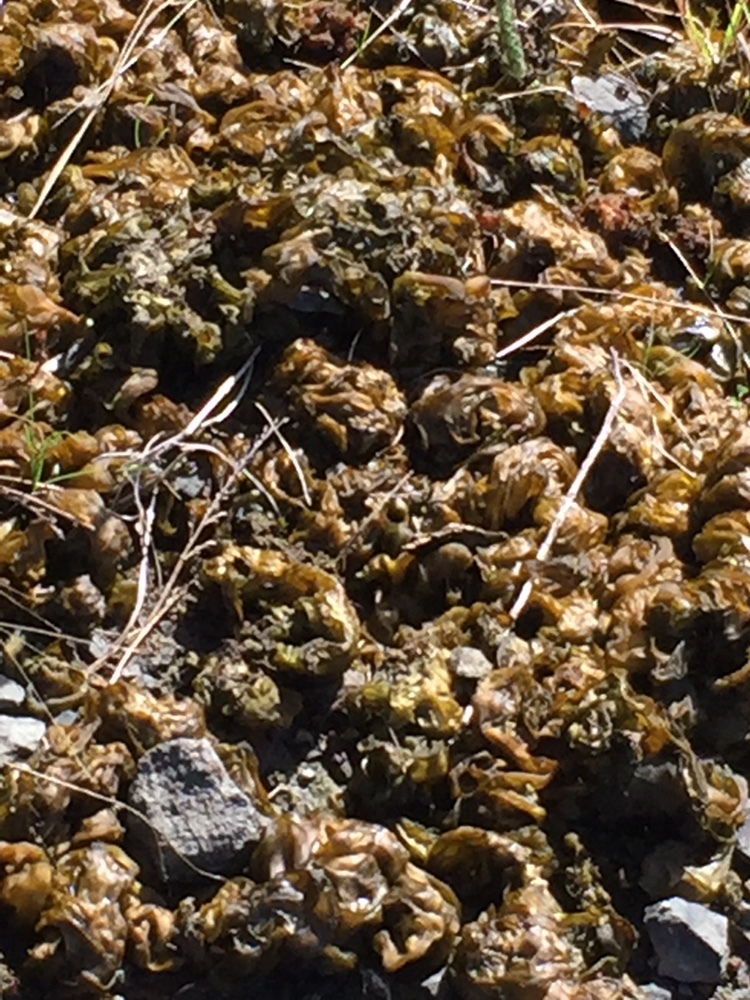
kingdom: Bacteria
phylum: Cyanobacteria
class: Cyanobacteriia
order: Cyanobacteriales
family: Nostocaceae
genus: Nostoc
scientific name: Nostoc commune
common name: Star jelly
